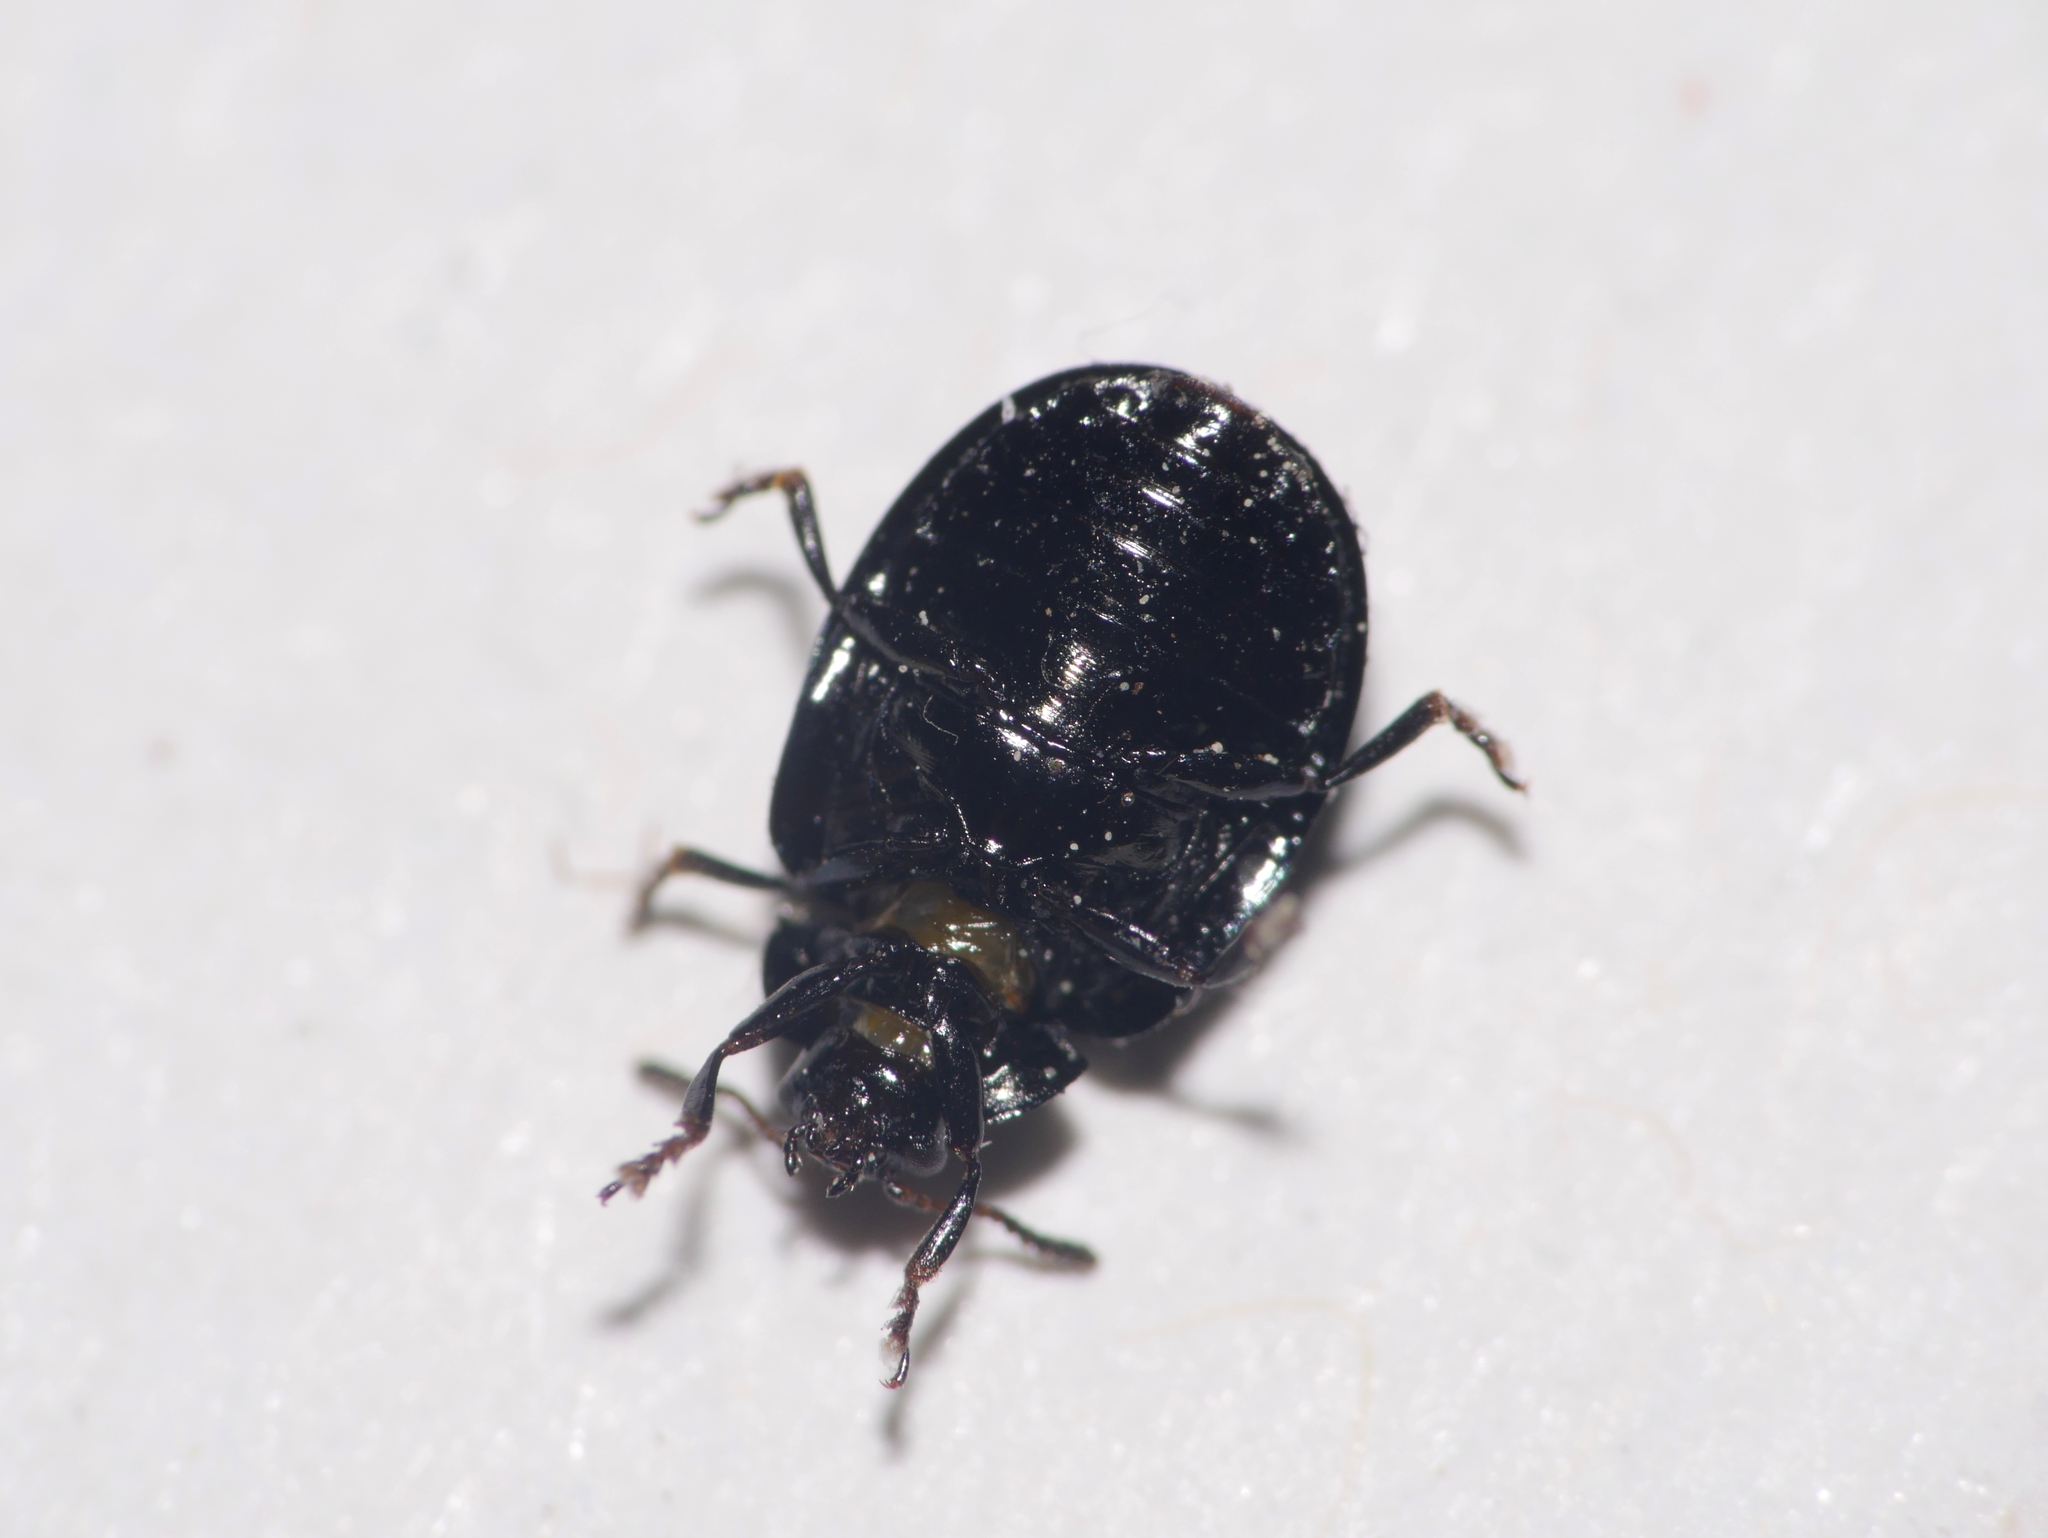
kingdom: Animalia
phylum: Arthropoda
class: Insecta
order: Coleoptera
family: Chrysomelidae
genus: Plagiodera
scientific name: Plagiodera versicolora
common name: Imported willow leaf beetle
